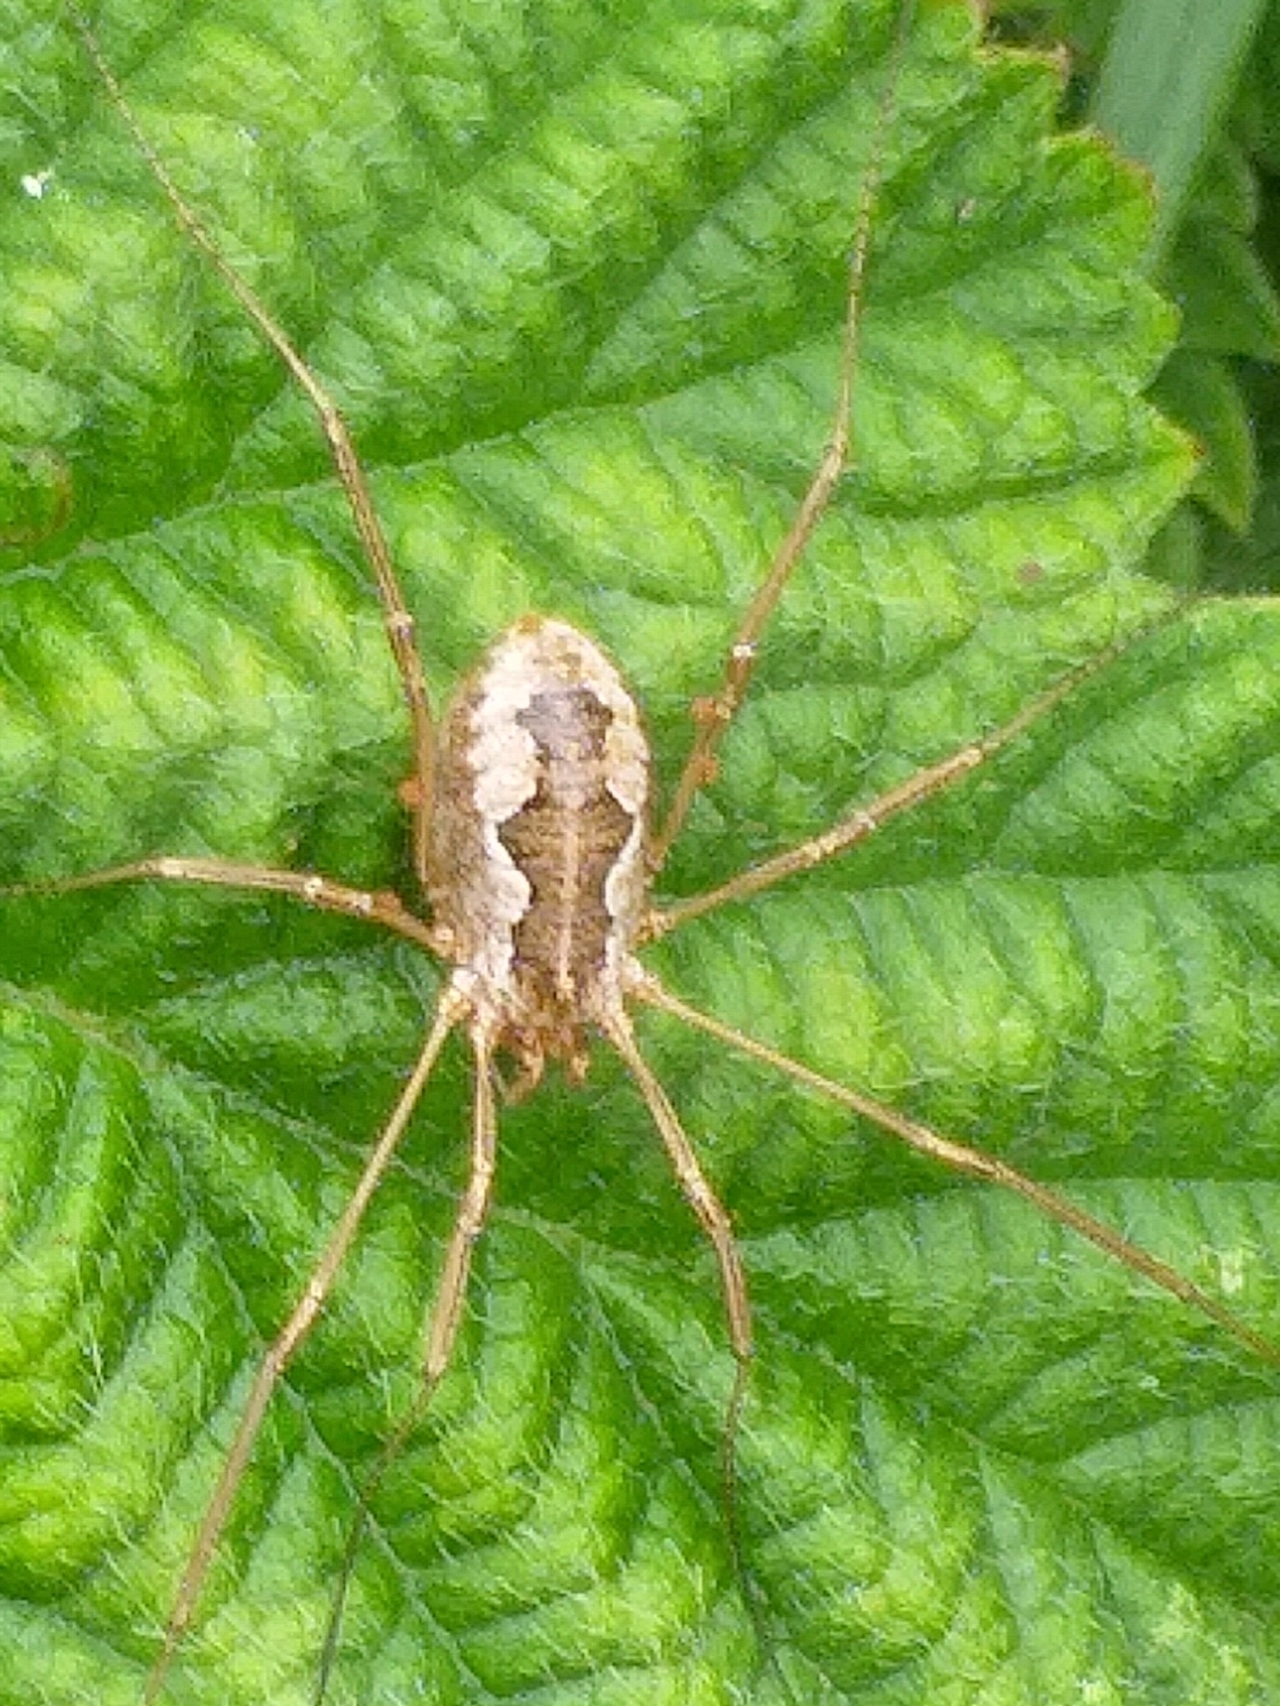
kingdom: Animalia
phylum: Arthropoda
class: Arachnida
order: Opiliones
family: Phalangiidae
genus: Phalangium
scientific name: Phalangium opilio
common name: Daddy longleg
